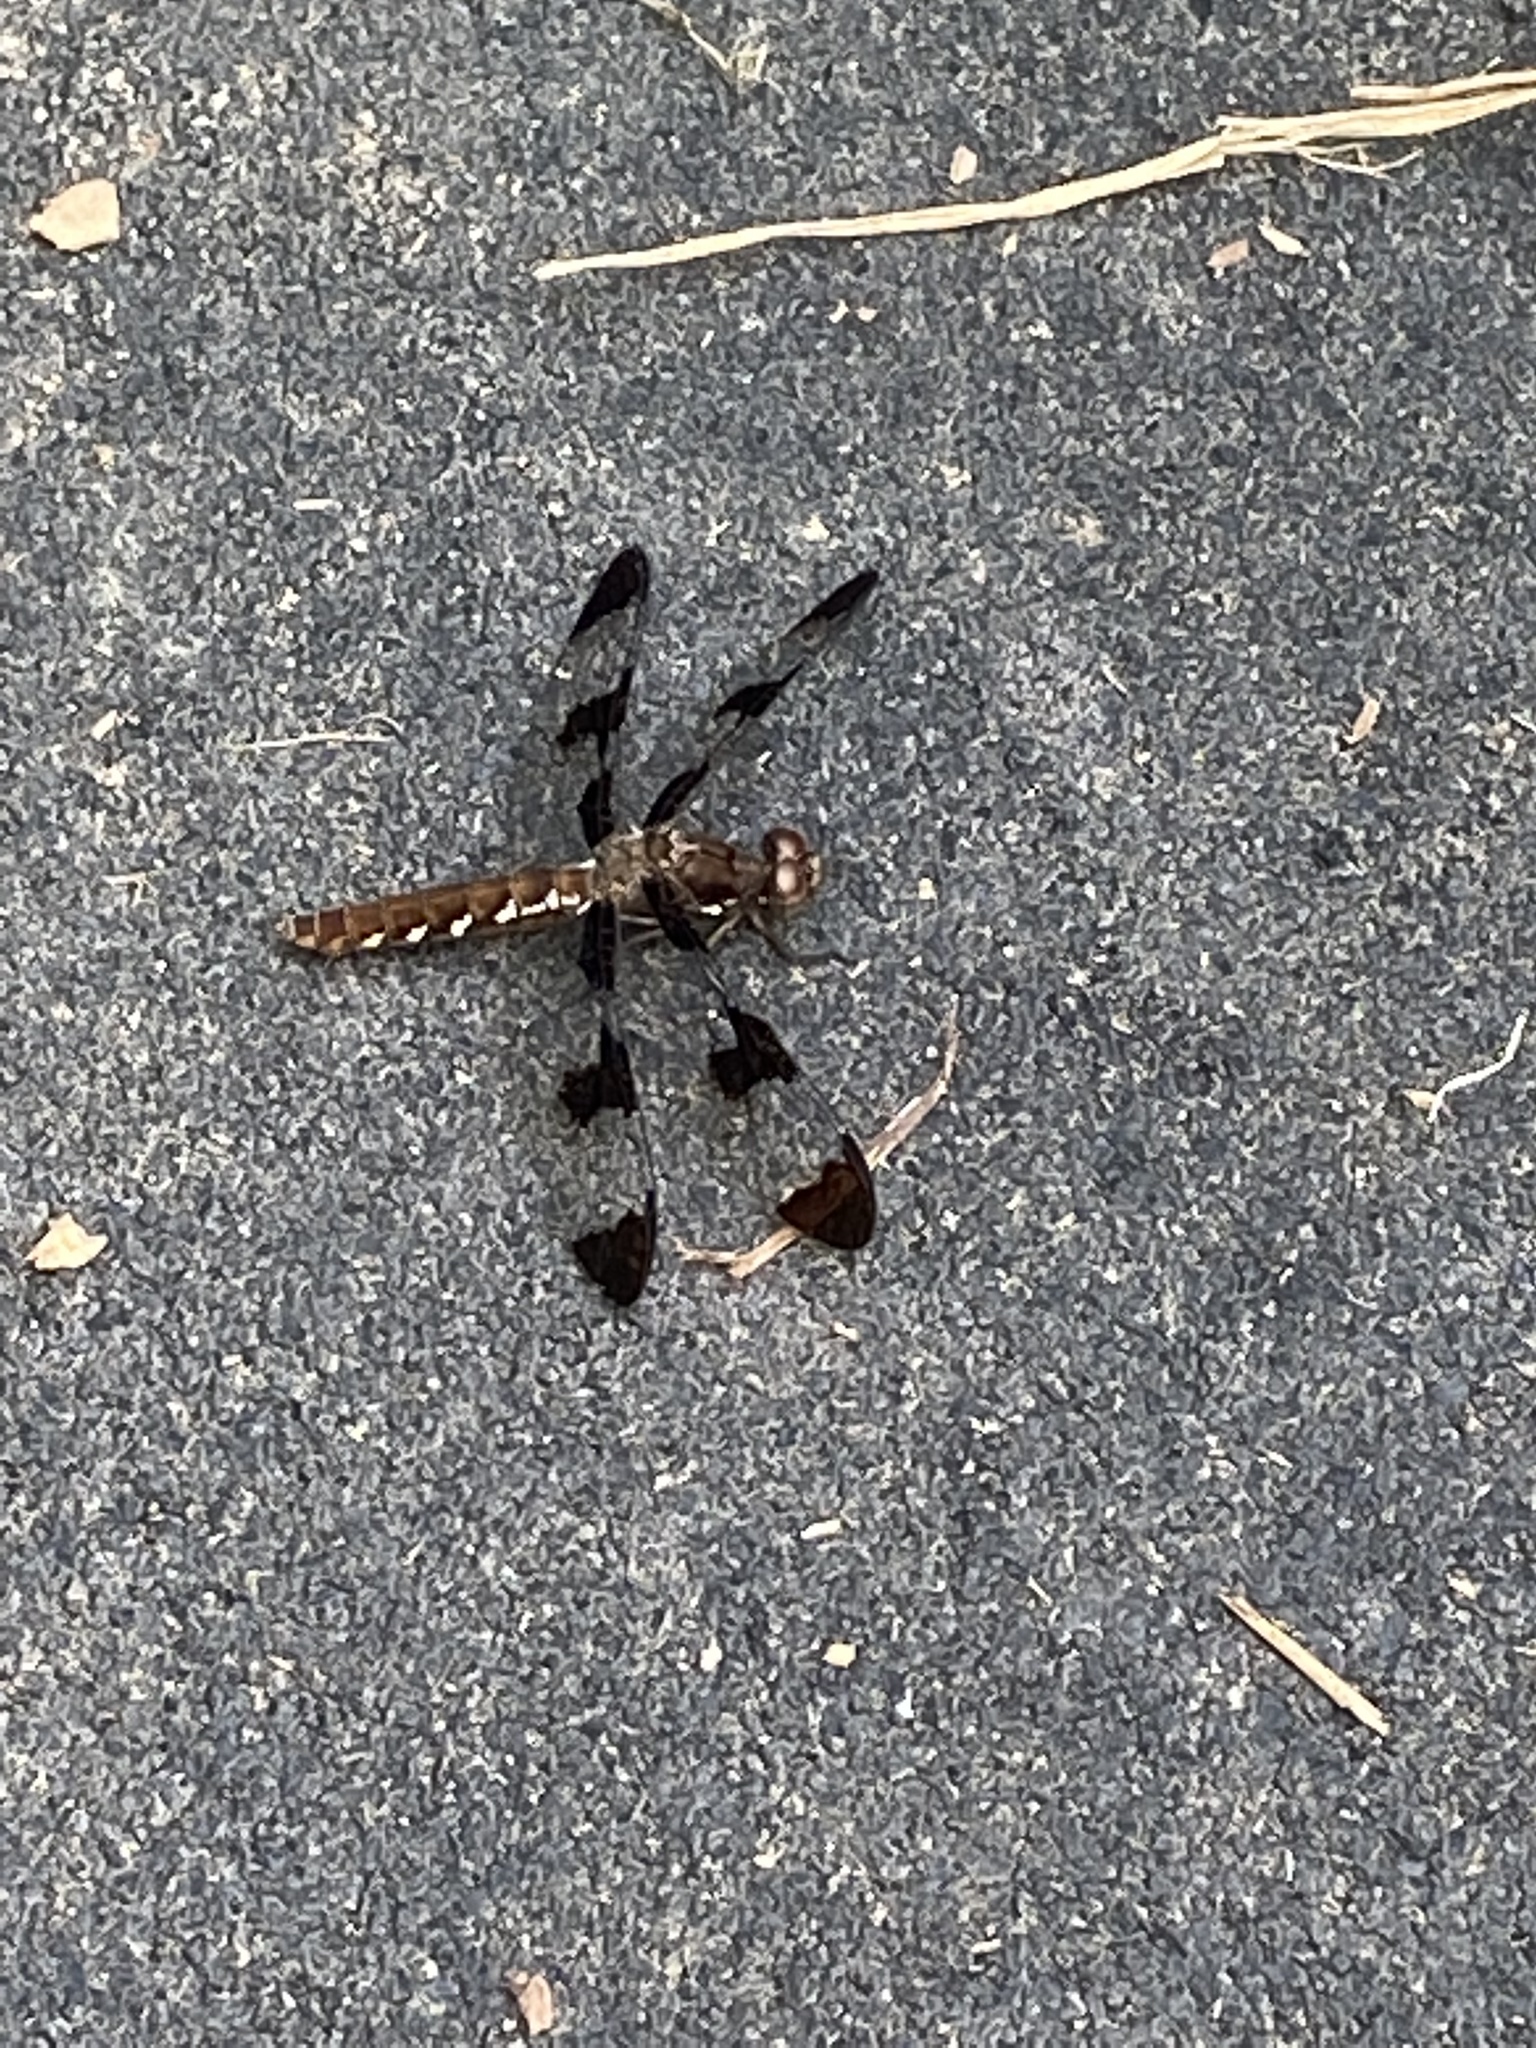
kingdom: Animalia
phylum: Arthropoda
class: Insecta
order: Odonata
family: Libellulidae
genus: Plathemis
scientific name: Plathemis lydia
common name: Common whitetail
